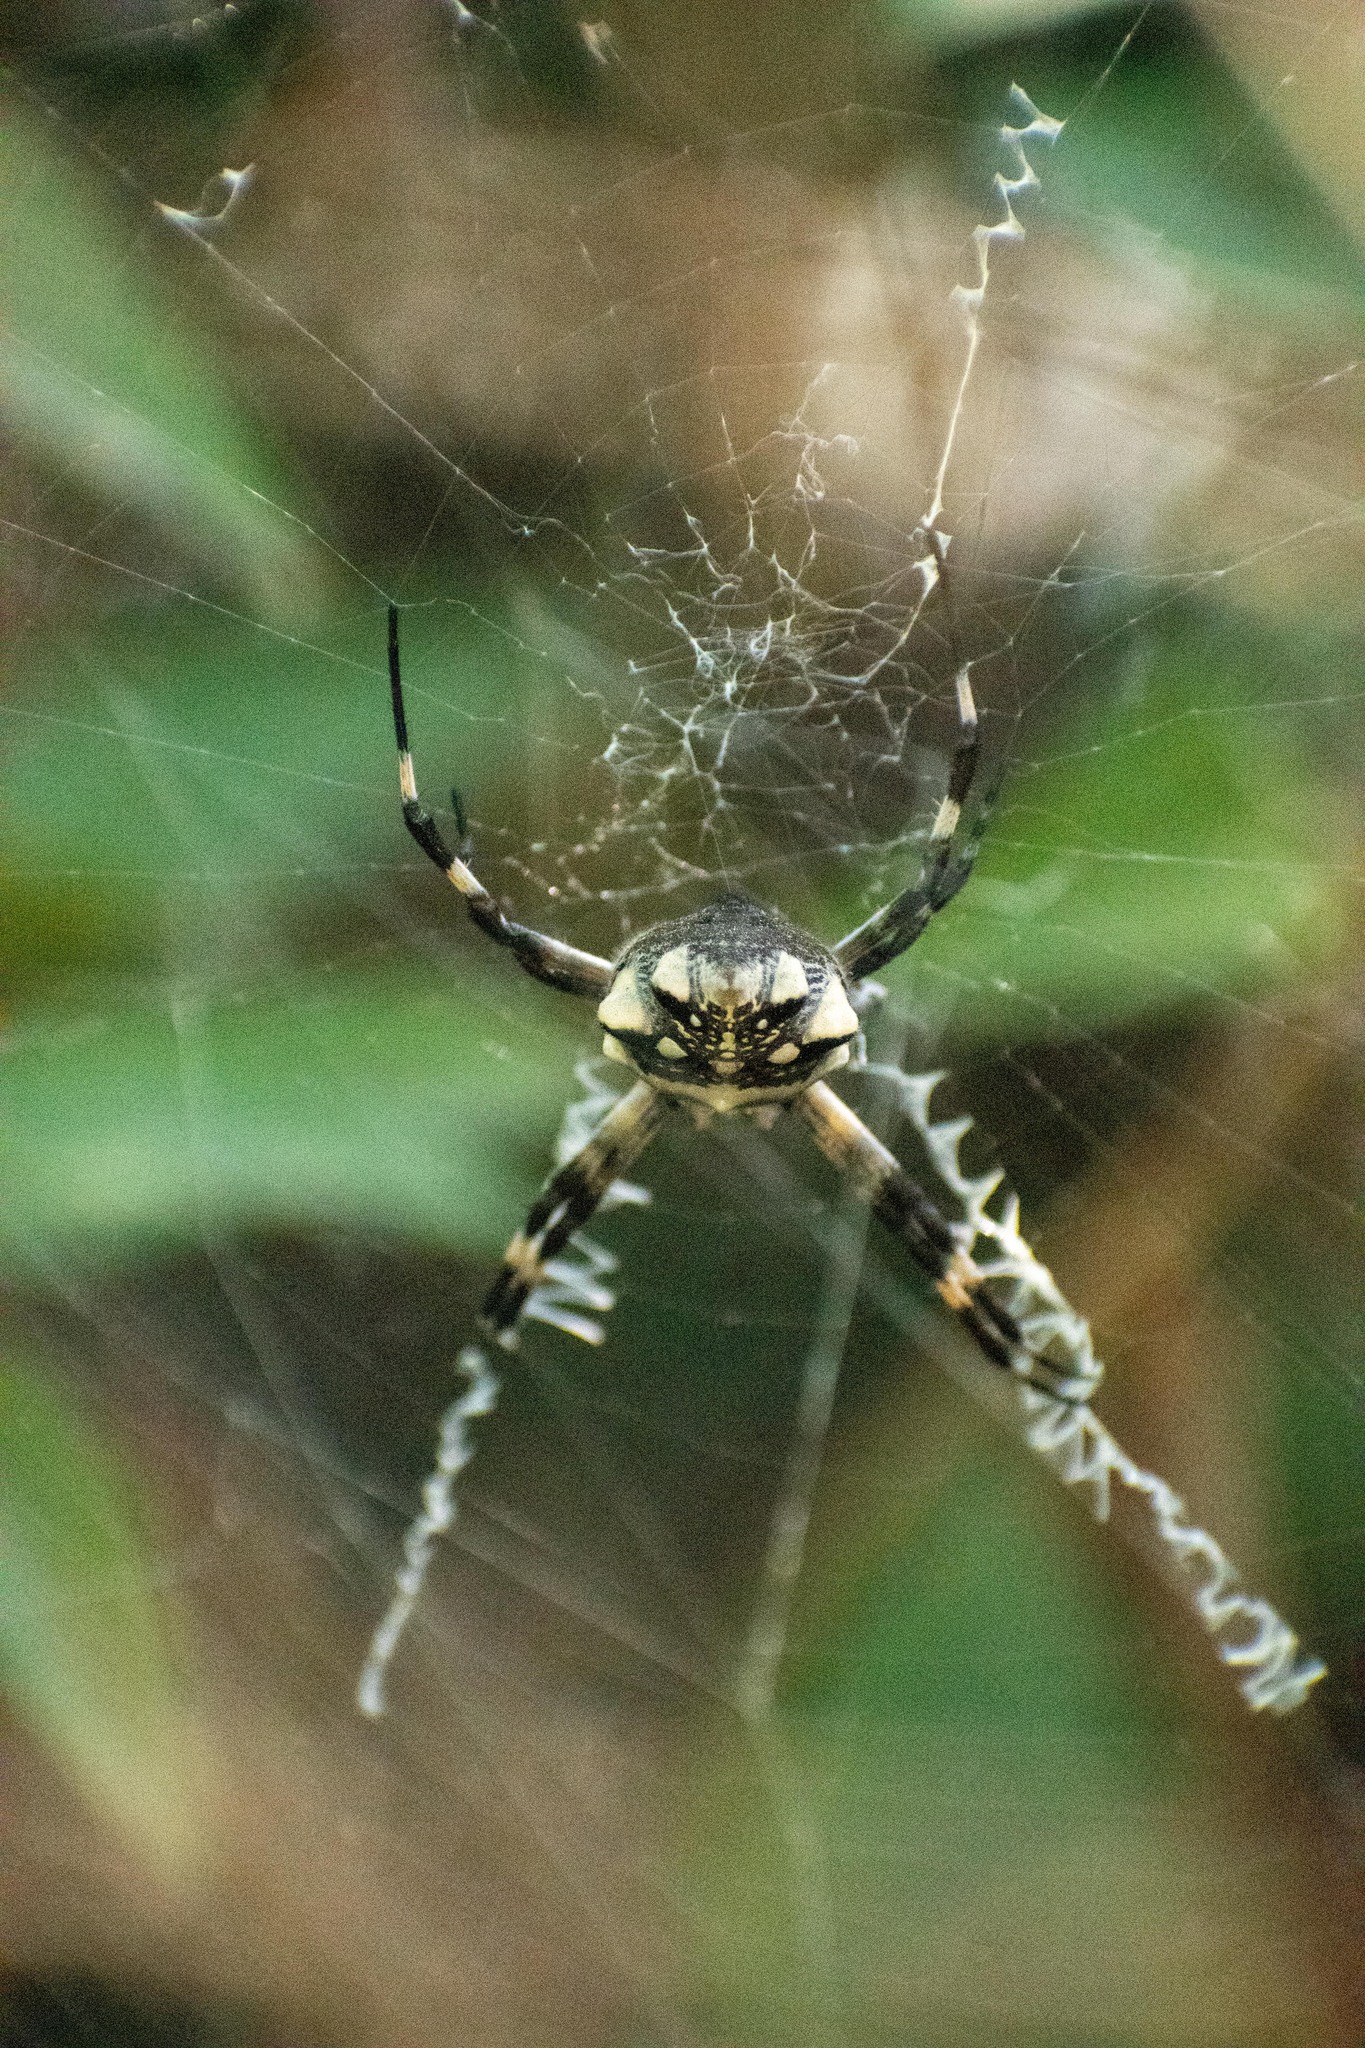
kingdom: Animalia
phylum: Arthropoda
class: Arachnida
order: Araneae
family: Araneidae
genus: Argiope
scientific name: Argiope argentata
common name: Orb weavers
